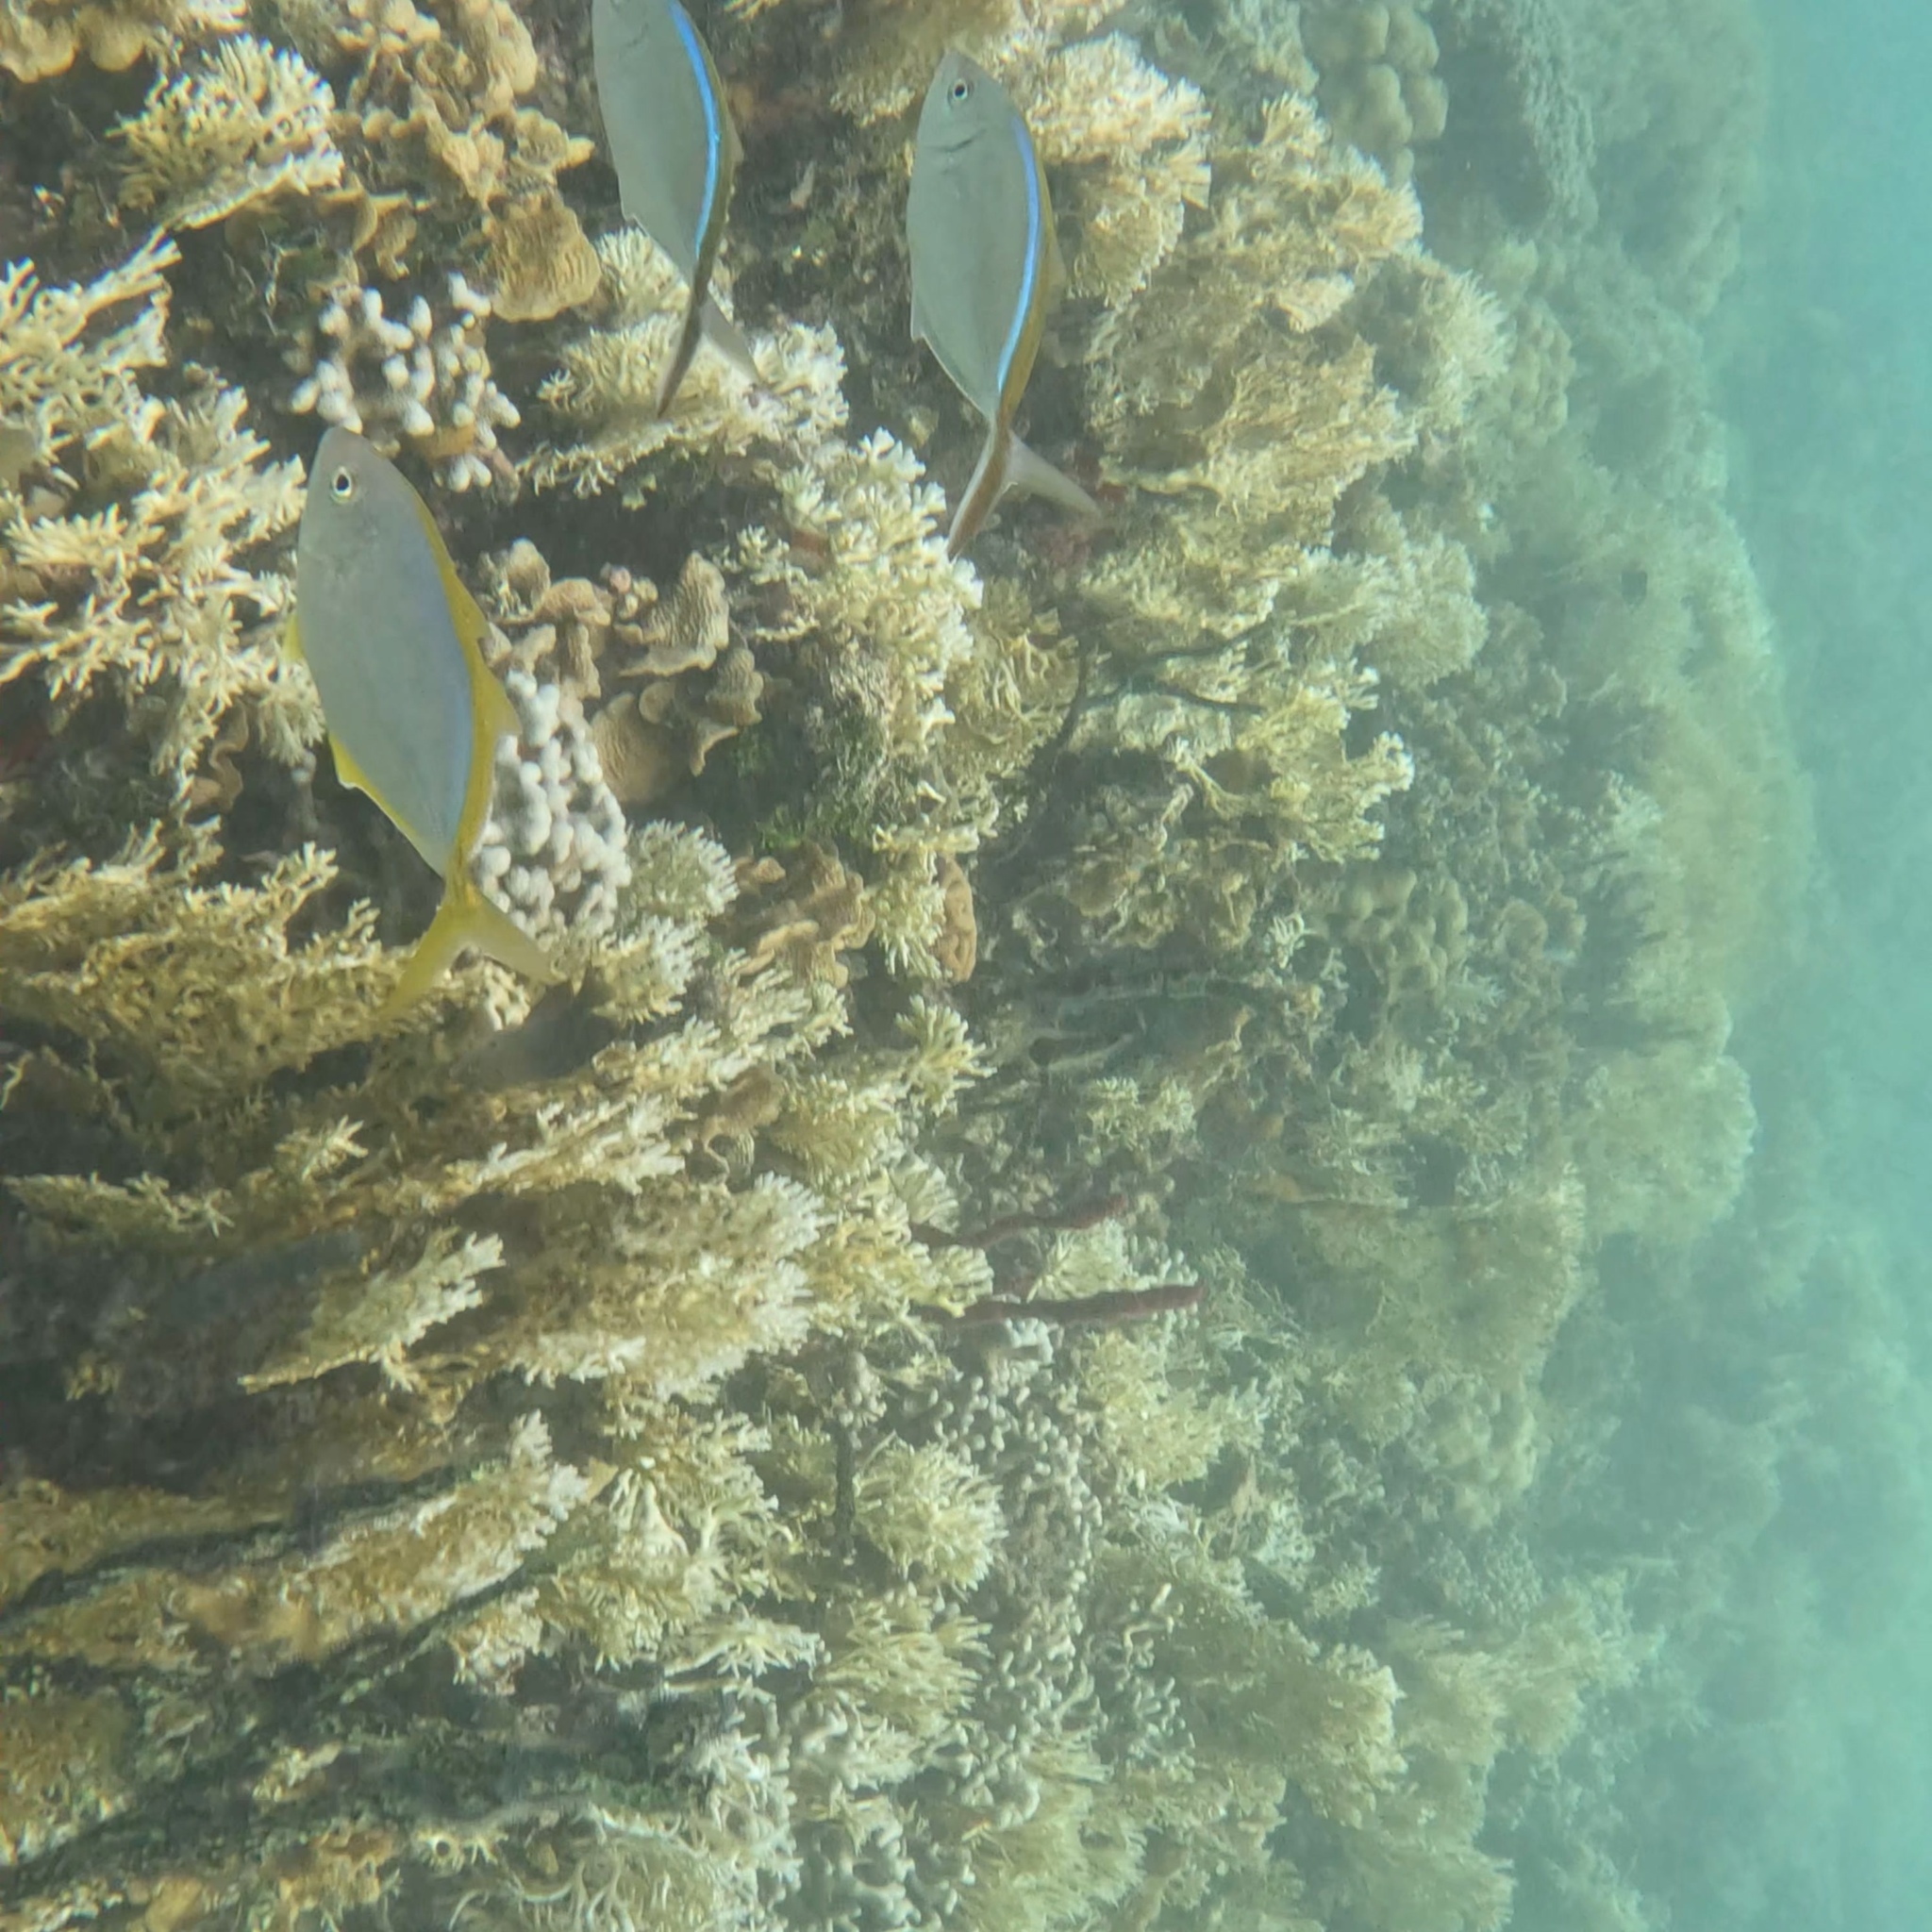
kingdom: Animalia
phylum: Chordata
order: Perciformes
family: Carangidae
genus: Carangoides
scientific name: Carangoides bartholomaei
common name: Yellow jack
